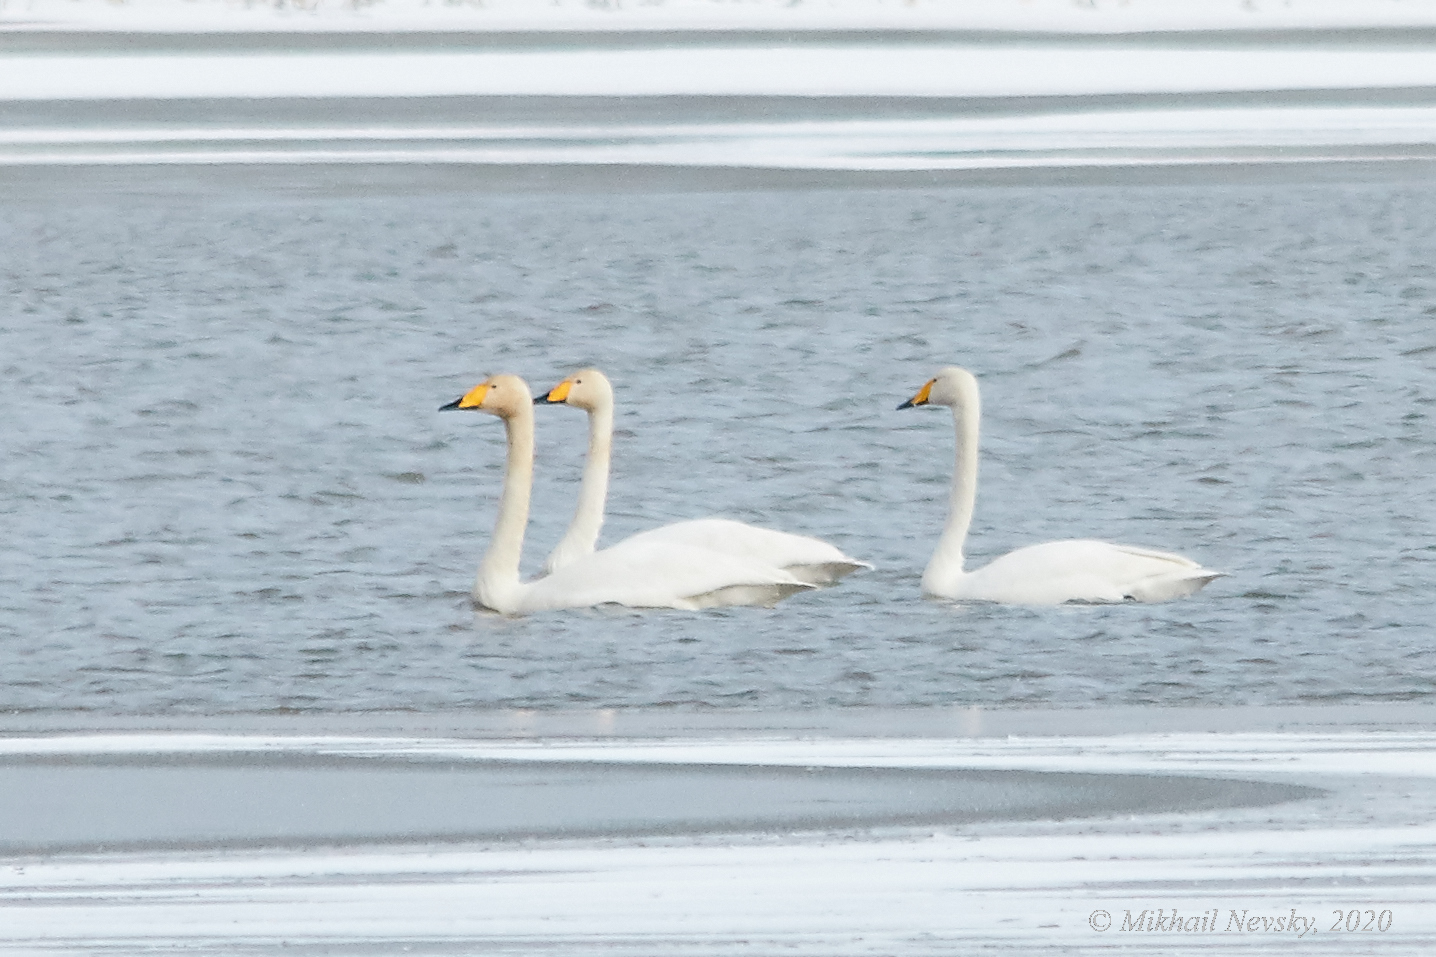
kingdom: Animalia
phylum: Chordata
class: Aves
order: Anseriformes
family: Anatidae
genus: Cygnus
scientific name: Cygnus cygnus
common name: Whooper swan
